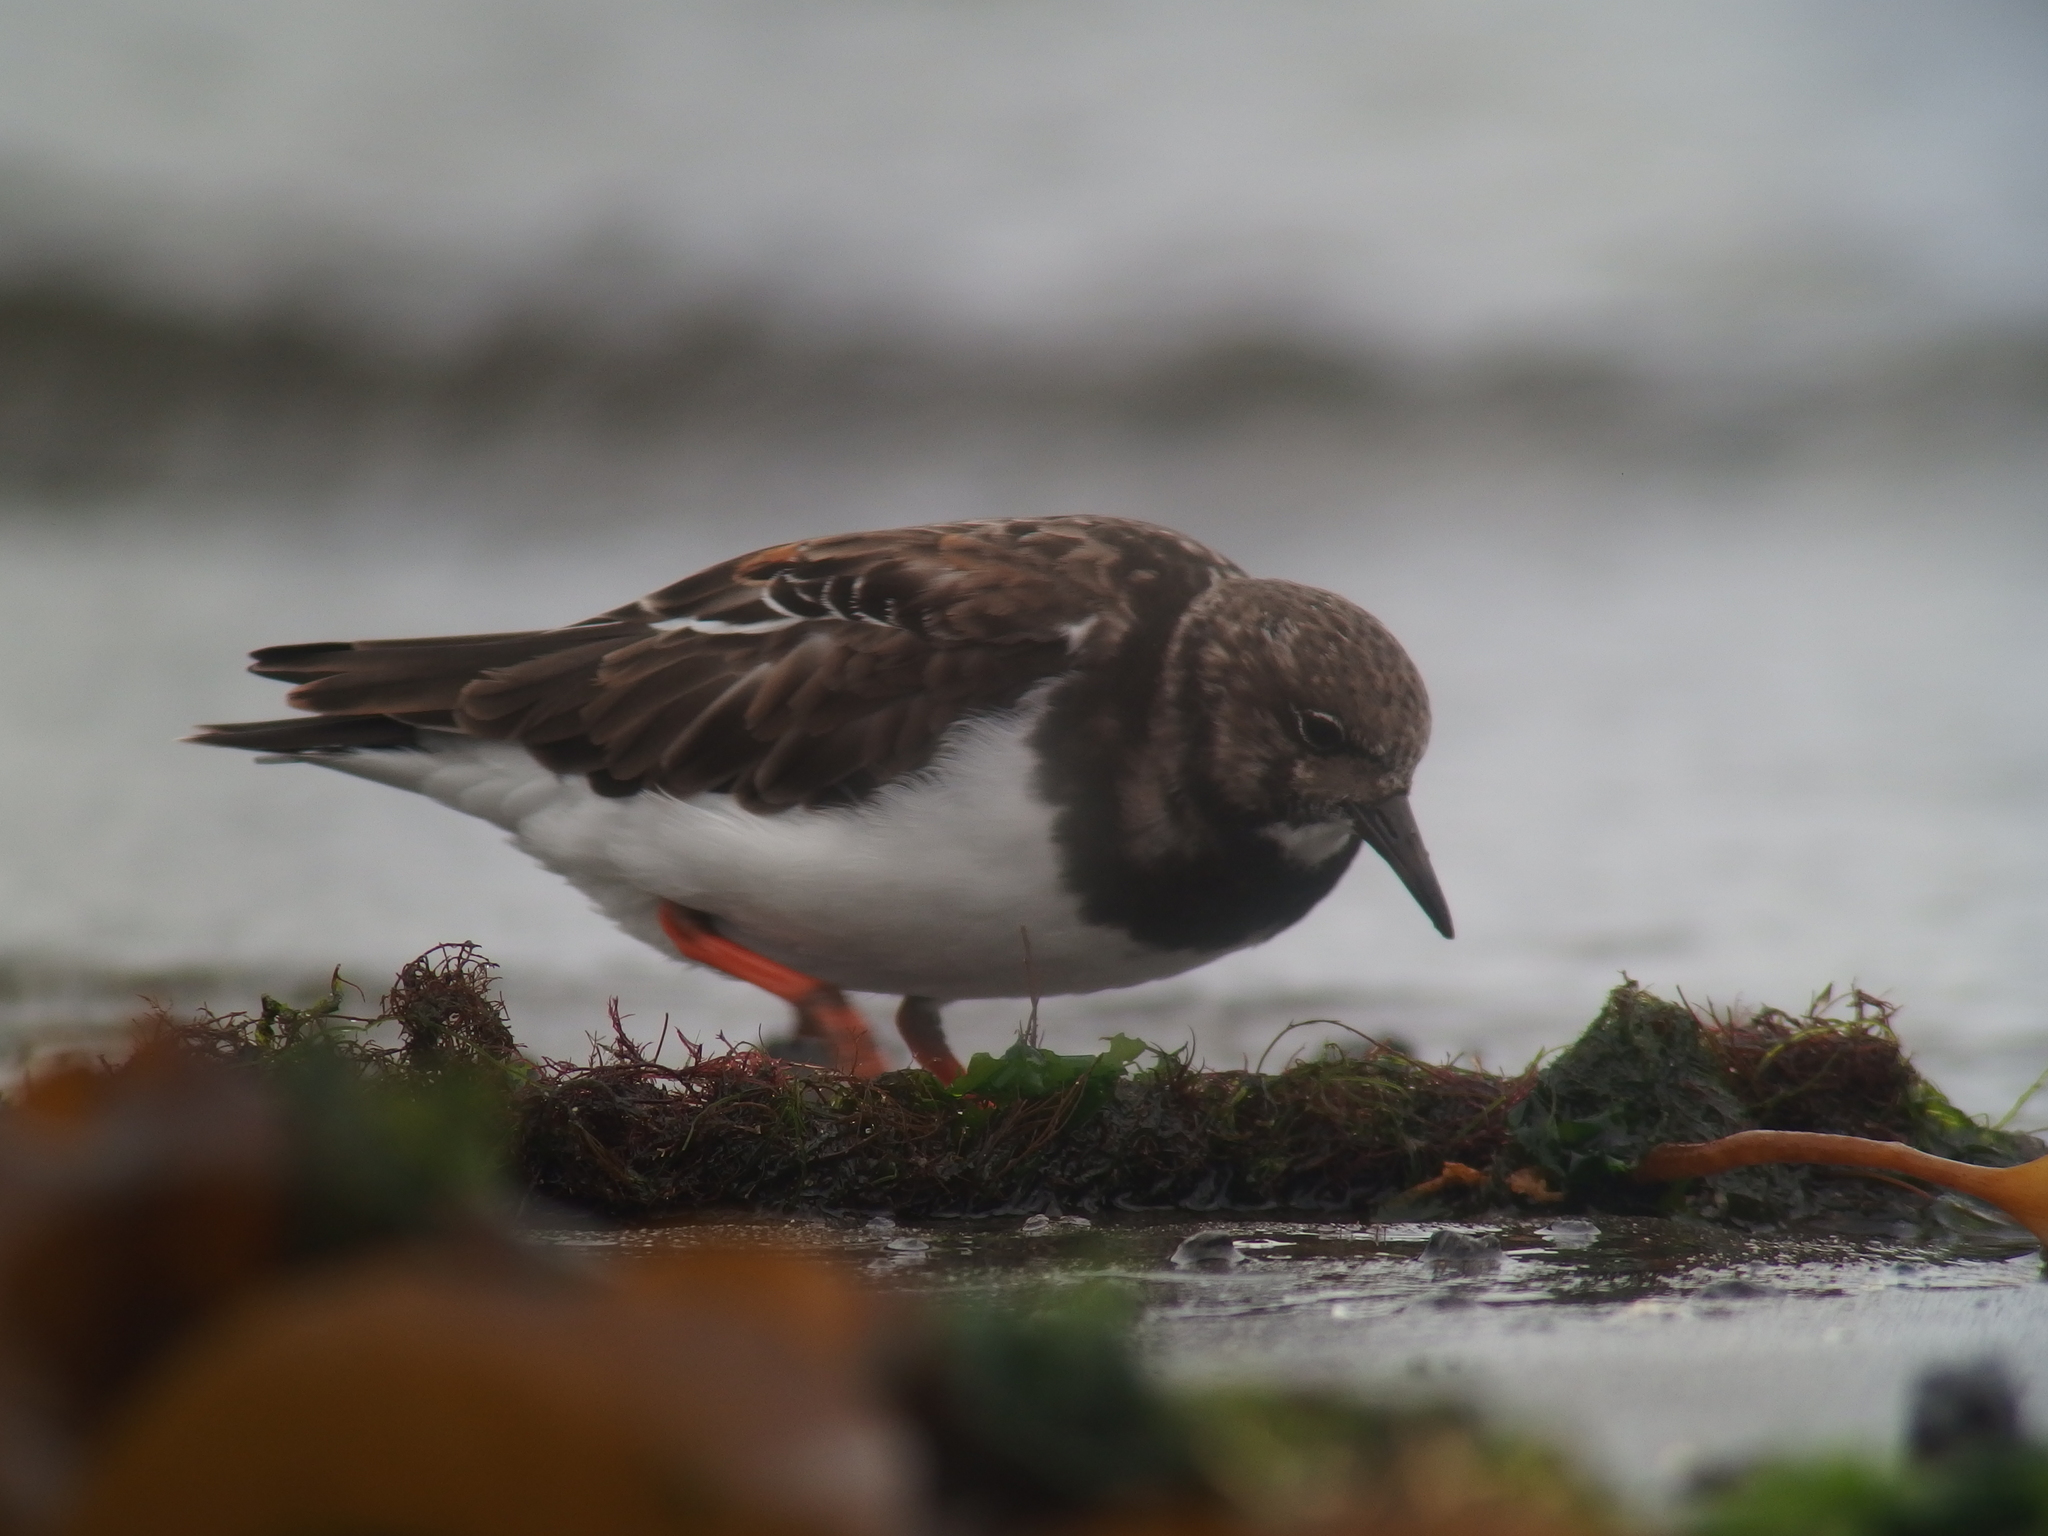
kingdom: Animalia
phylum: Chordata
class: Aves
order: Charadriiformes
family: Scolopacidae
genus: Arenaria
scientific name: Arenaria interpres
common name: Ruddy turnstone
